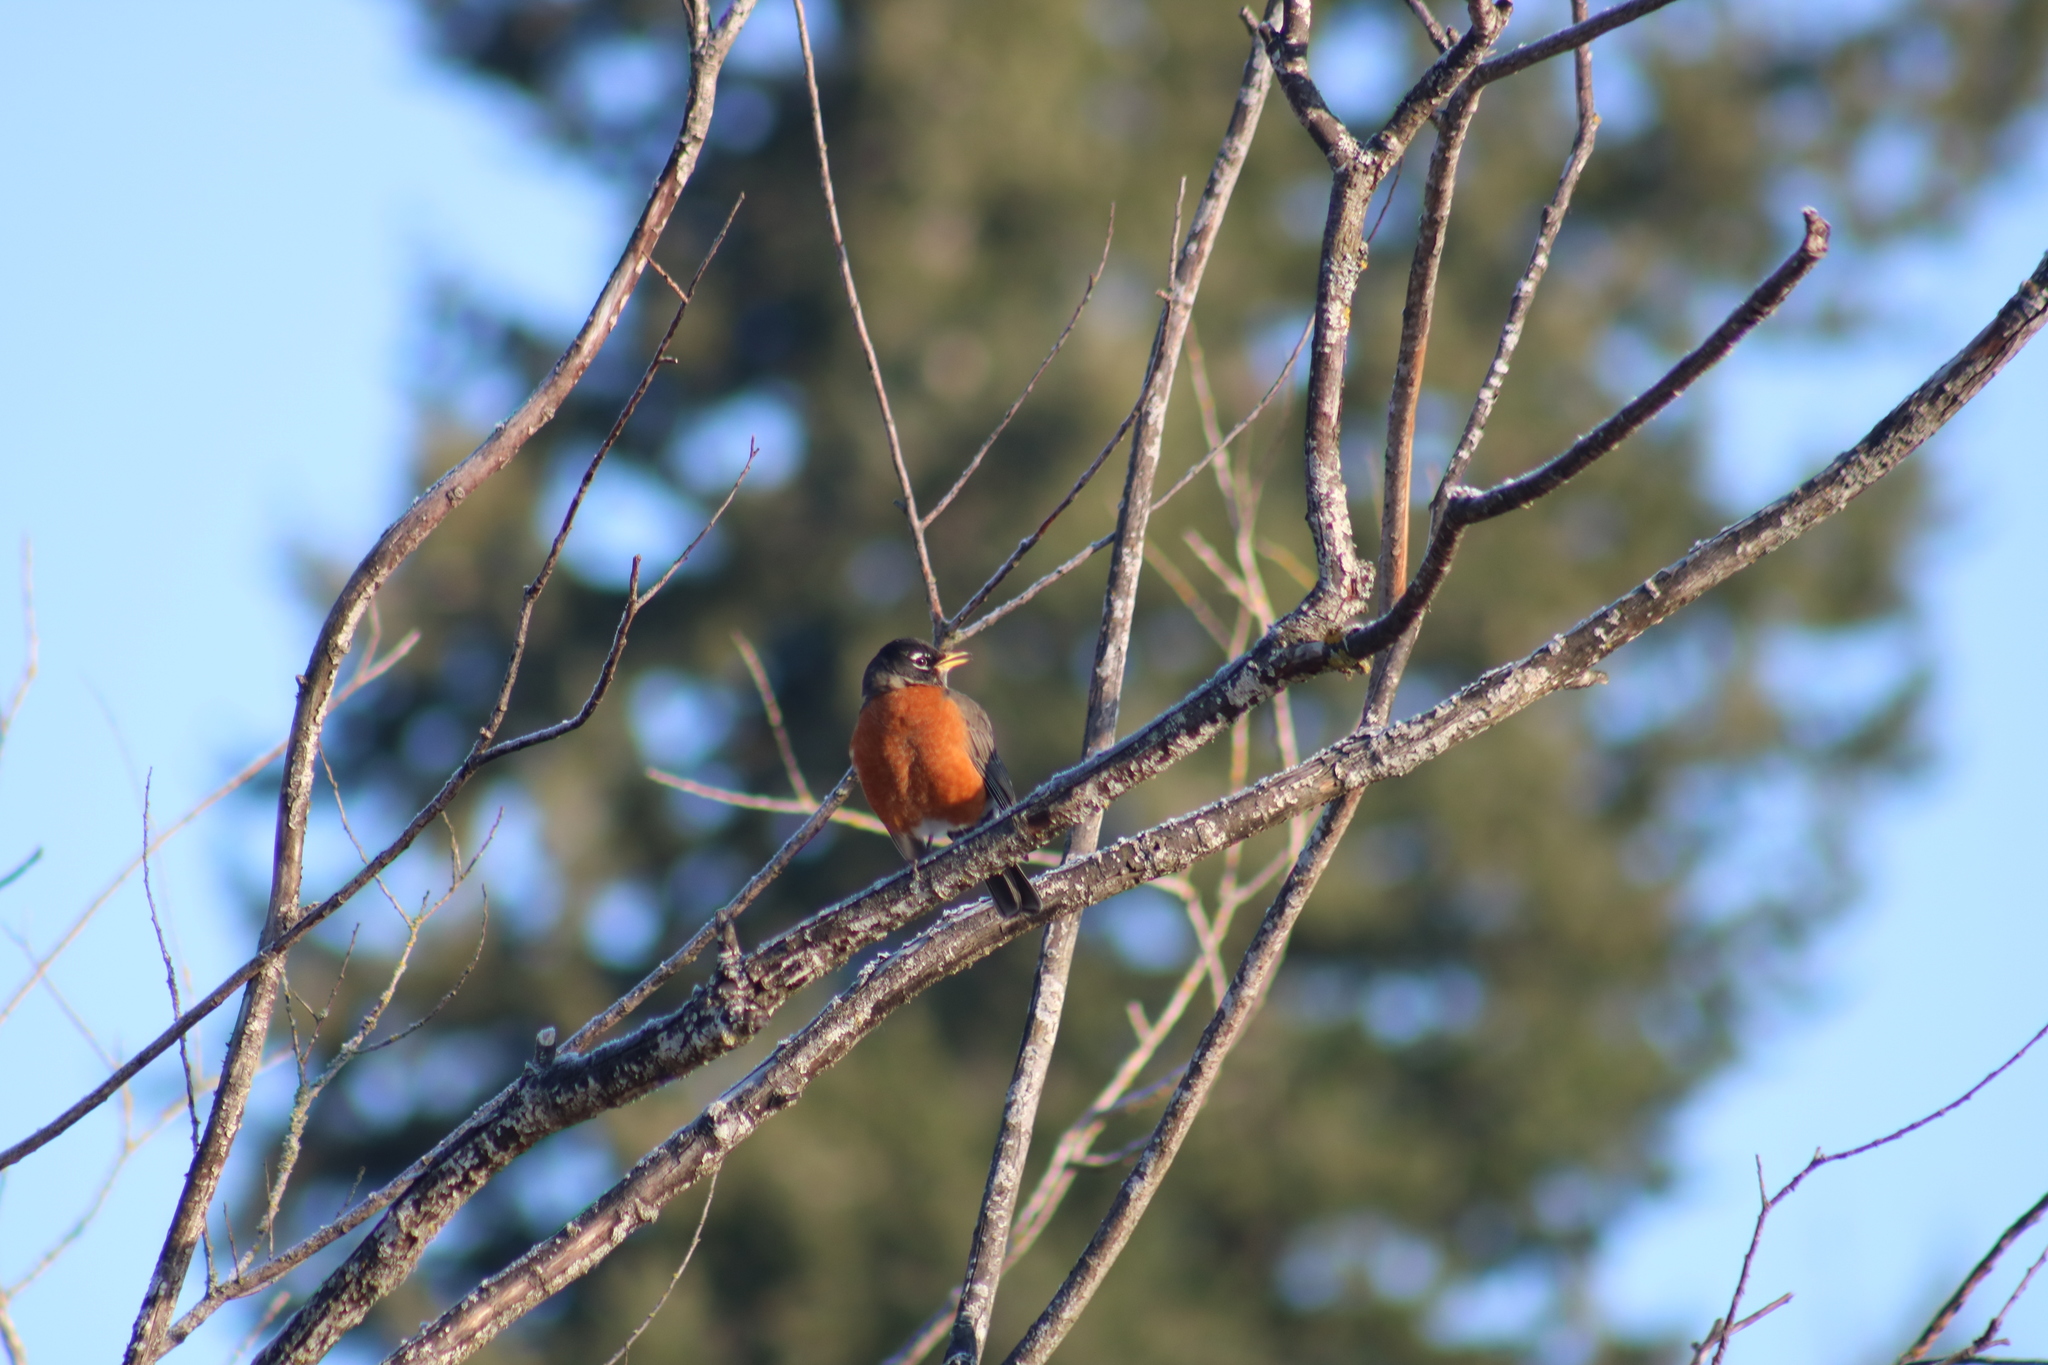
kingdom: Animalia
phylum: Chordata
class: Aves
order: Passeriformes
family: Turdidae
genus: Turdus
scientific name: Turdus migratorius
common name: American robin
